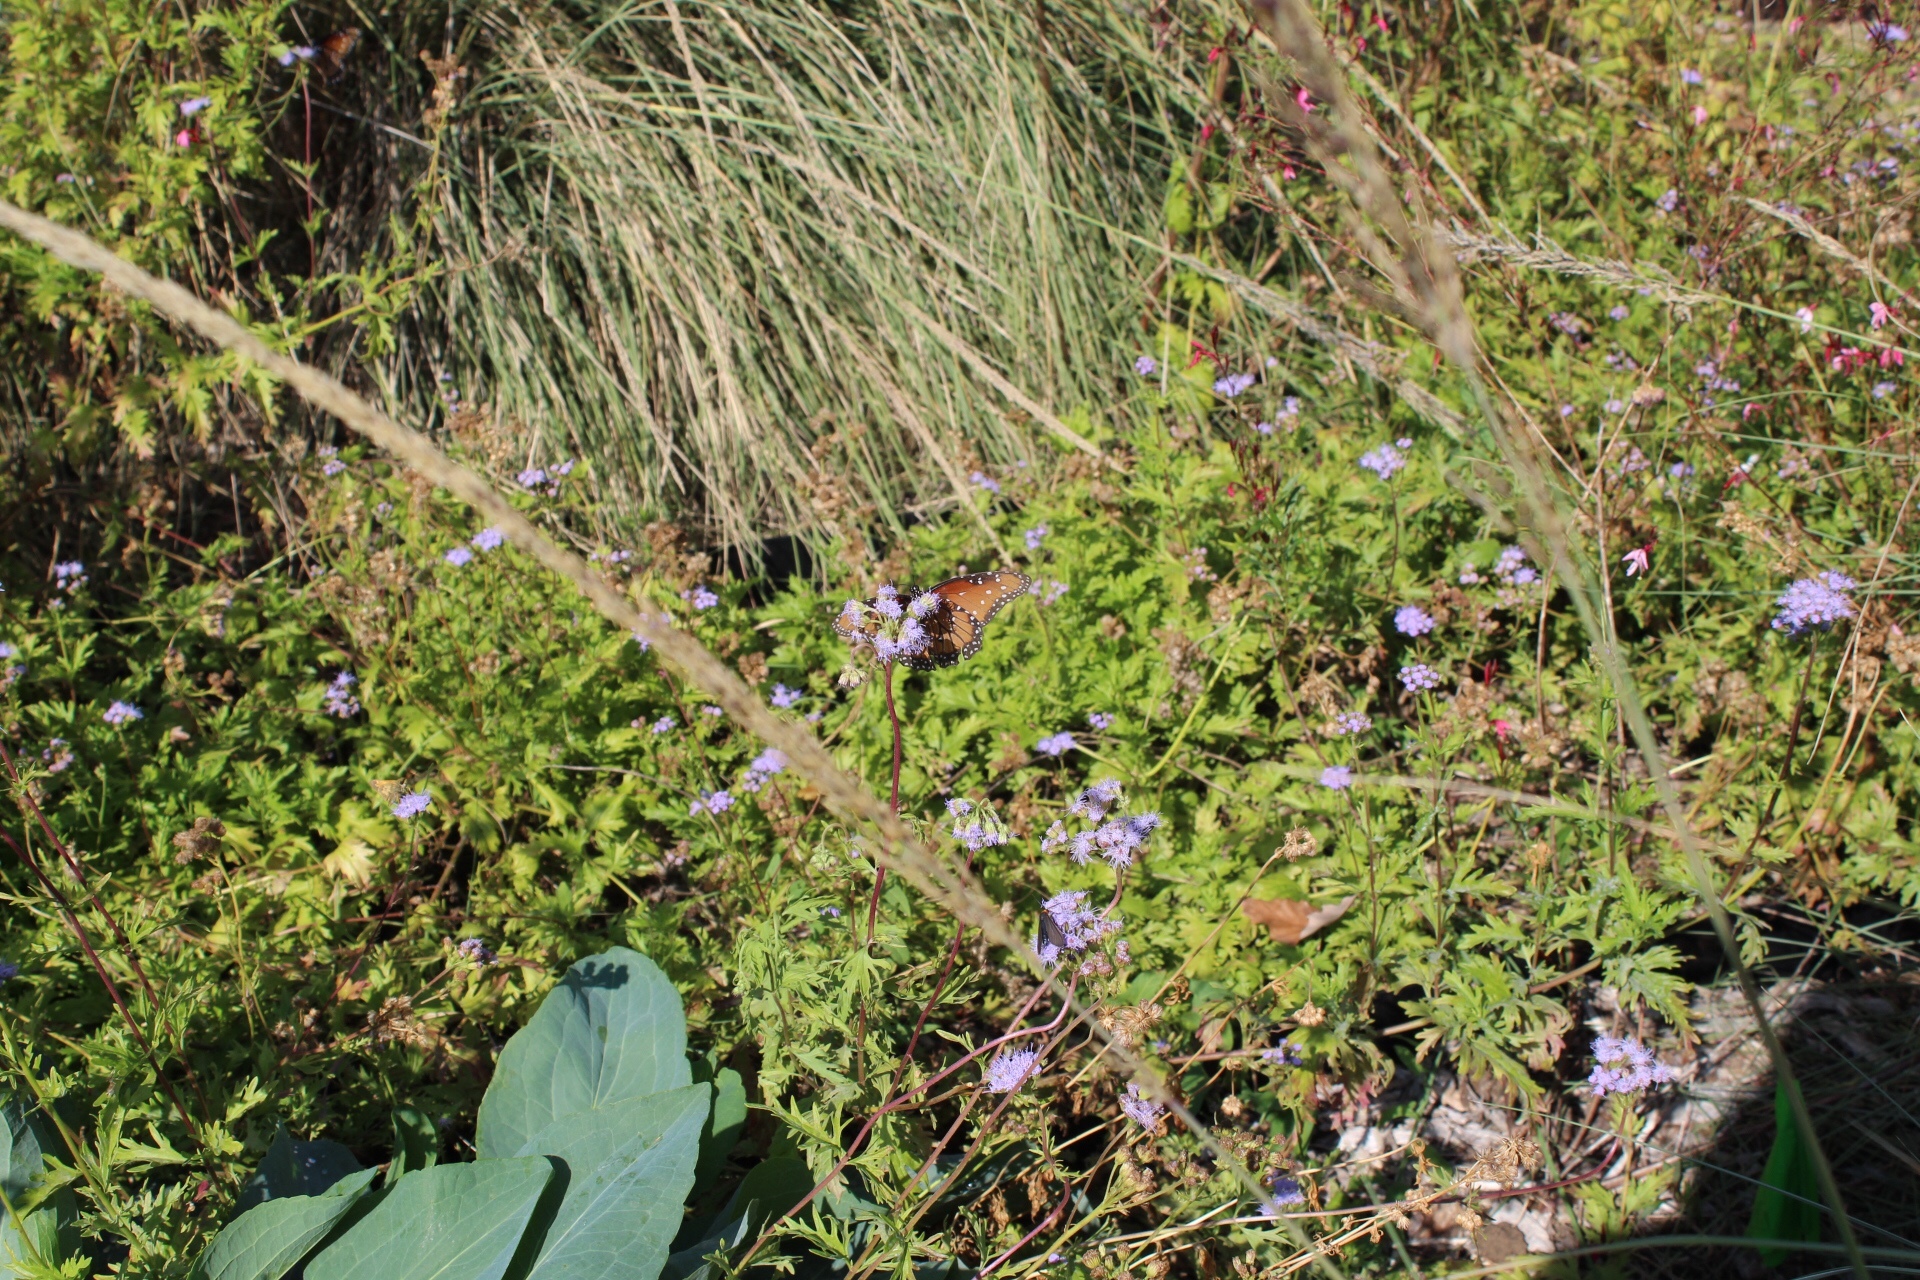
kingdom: Animalia
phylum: Arthropoda
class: Insecta
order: Lepidoptera
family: Nymphalidae
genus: Danaus
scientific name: Danaus gilippus
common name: Queen
